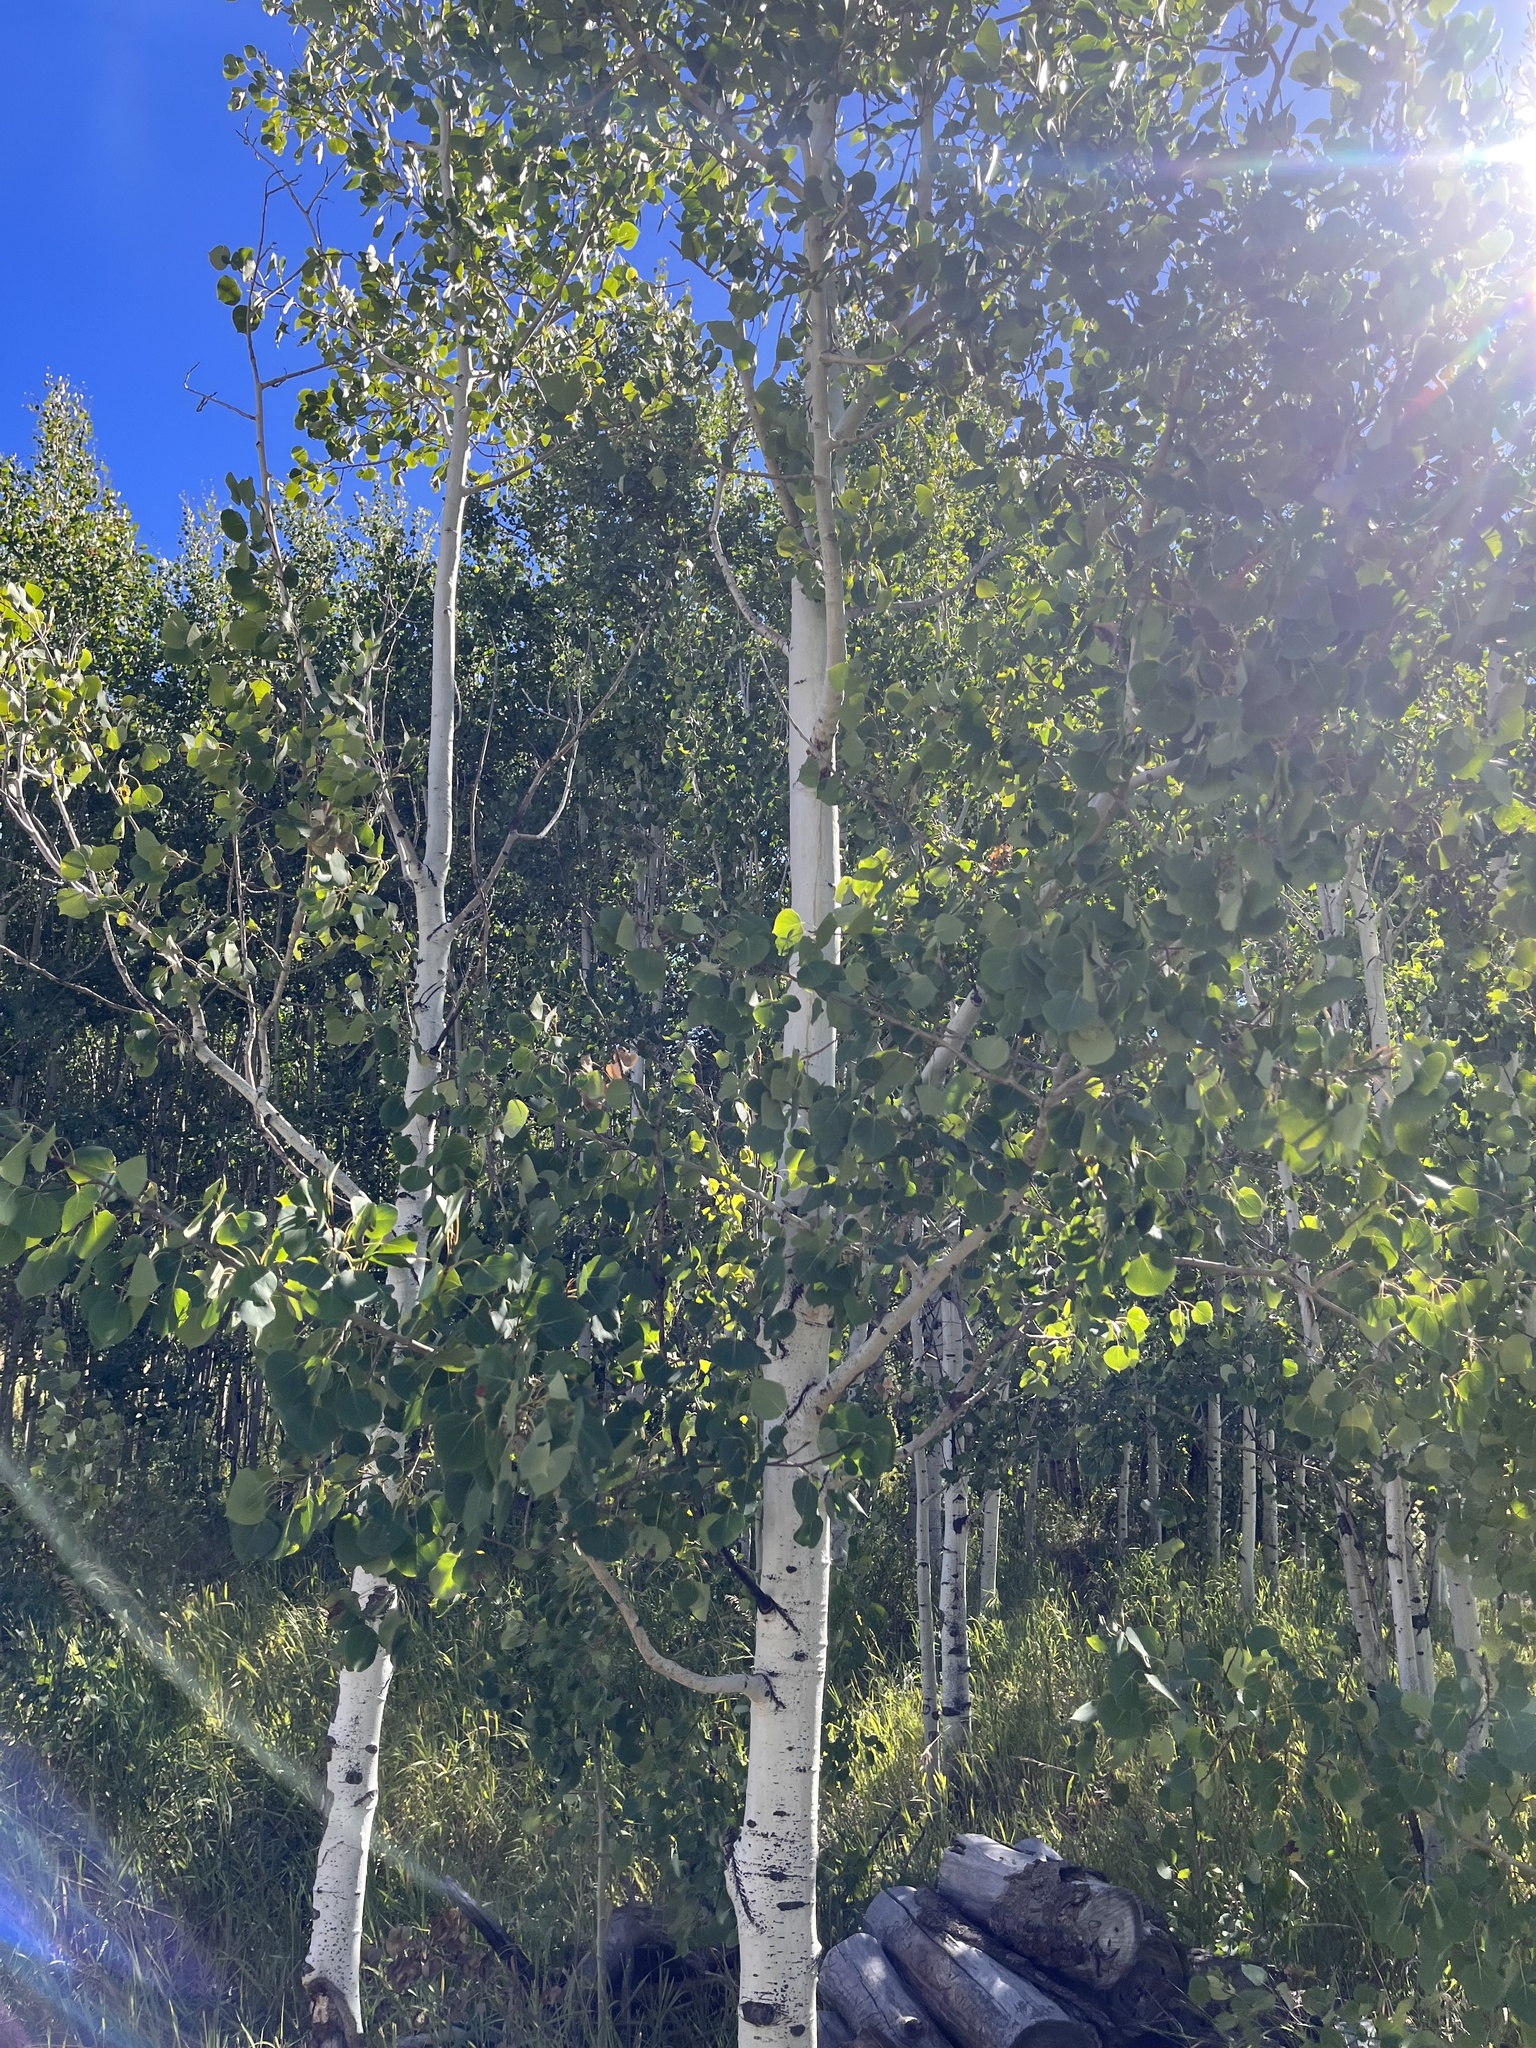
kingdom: Plantae
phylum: Tracheophyta
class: Magnoliopsida
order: Malpighiales
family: Salicaceae
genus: Populus
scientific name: Populus tremuloides
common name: Quaking aspen
